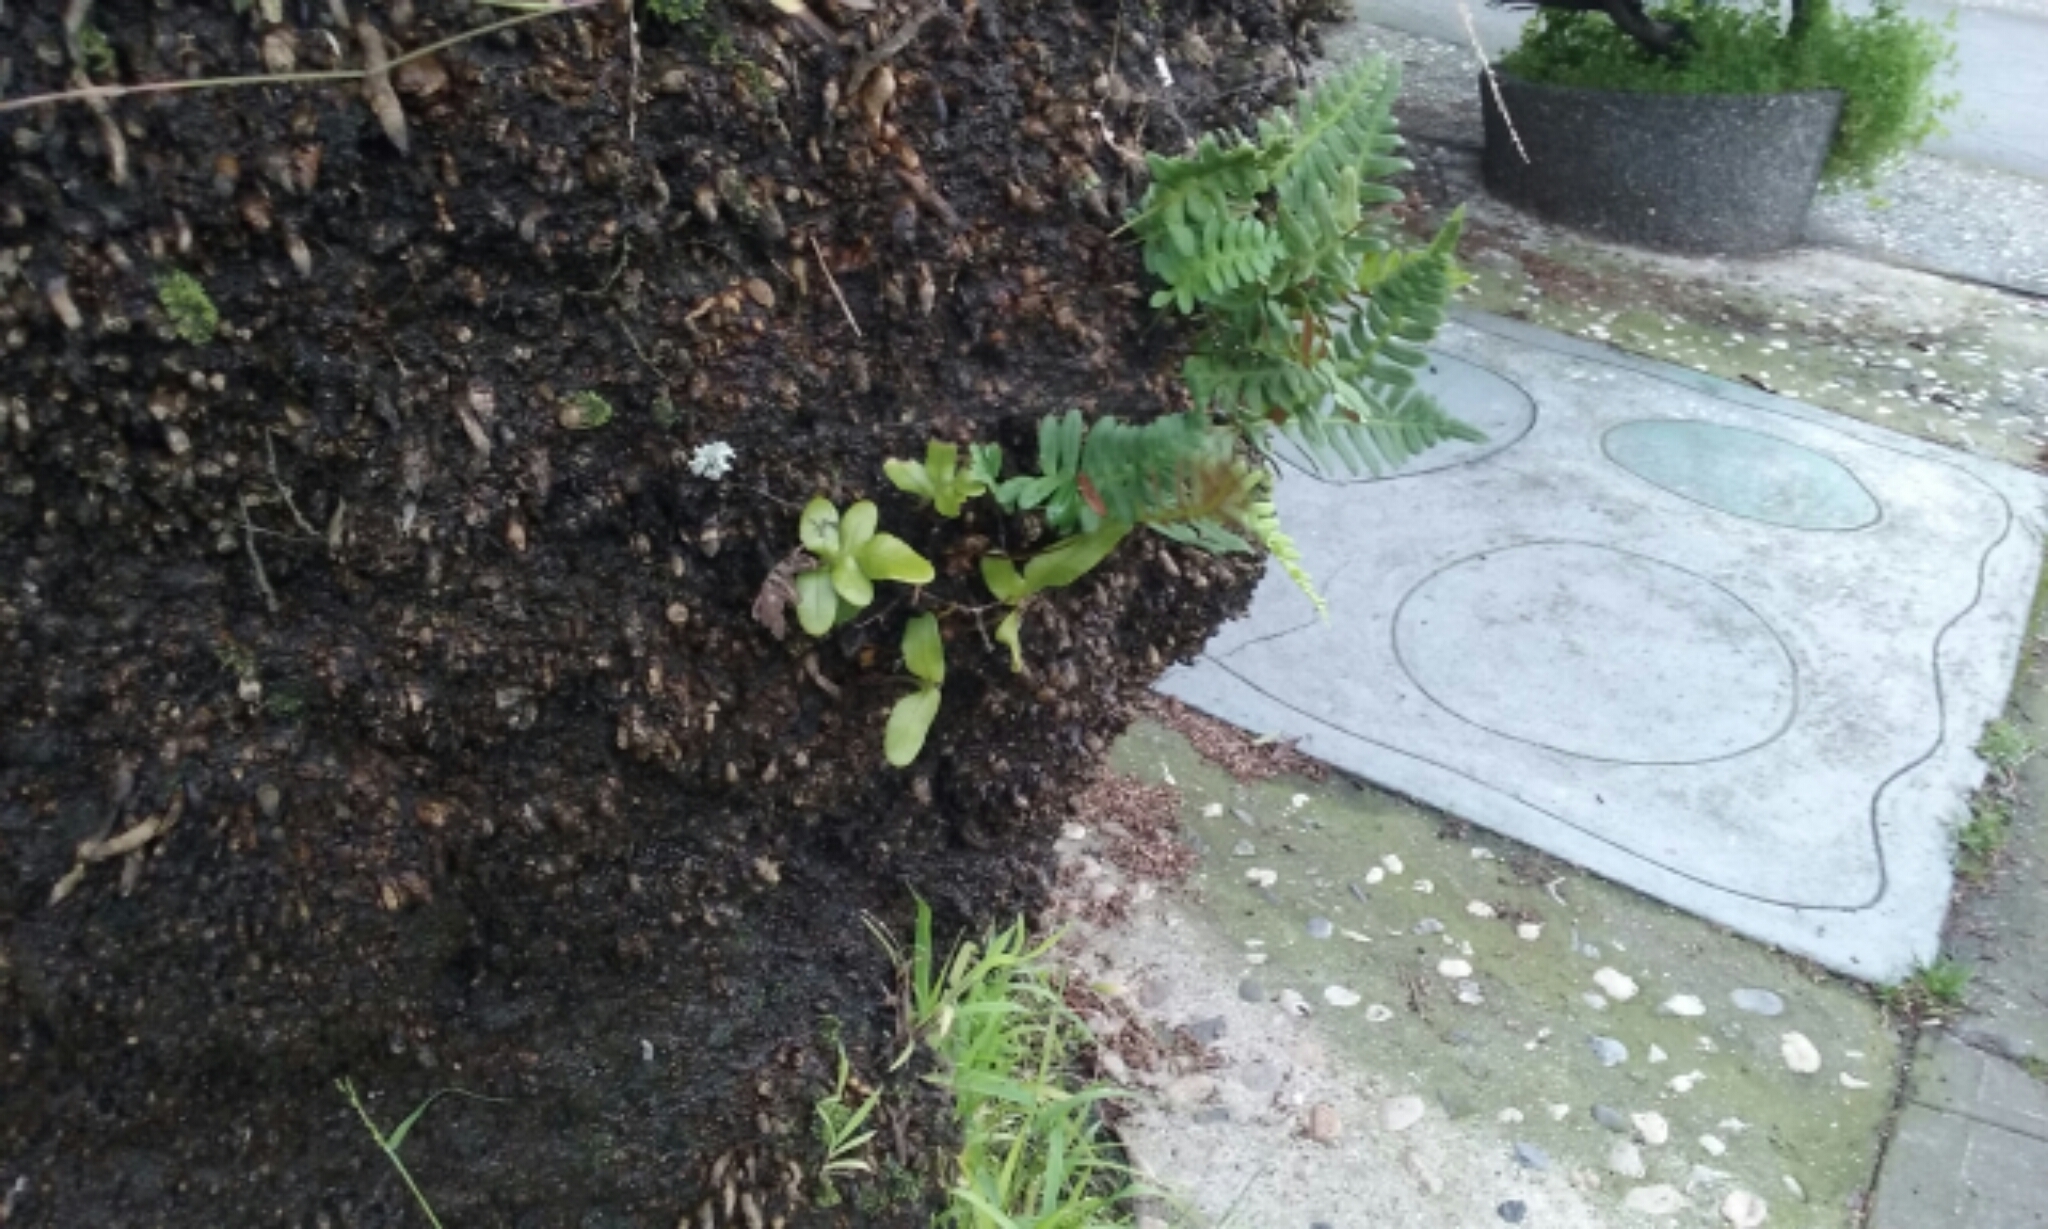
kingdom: Plantae
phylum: Tracheophyta
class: Polypodiopsida
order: Polypodiales
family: Polypodiaceae
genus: Polypodium
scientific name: Polypodium scouleri
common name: Scouler's polypody
